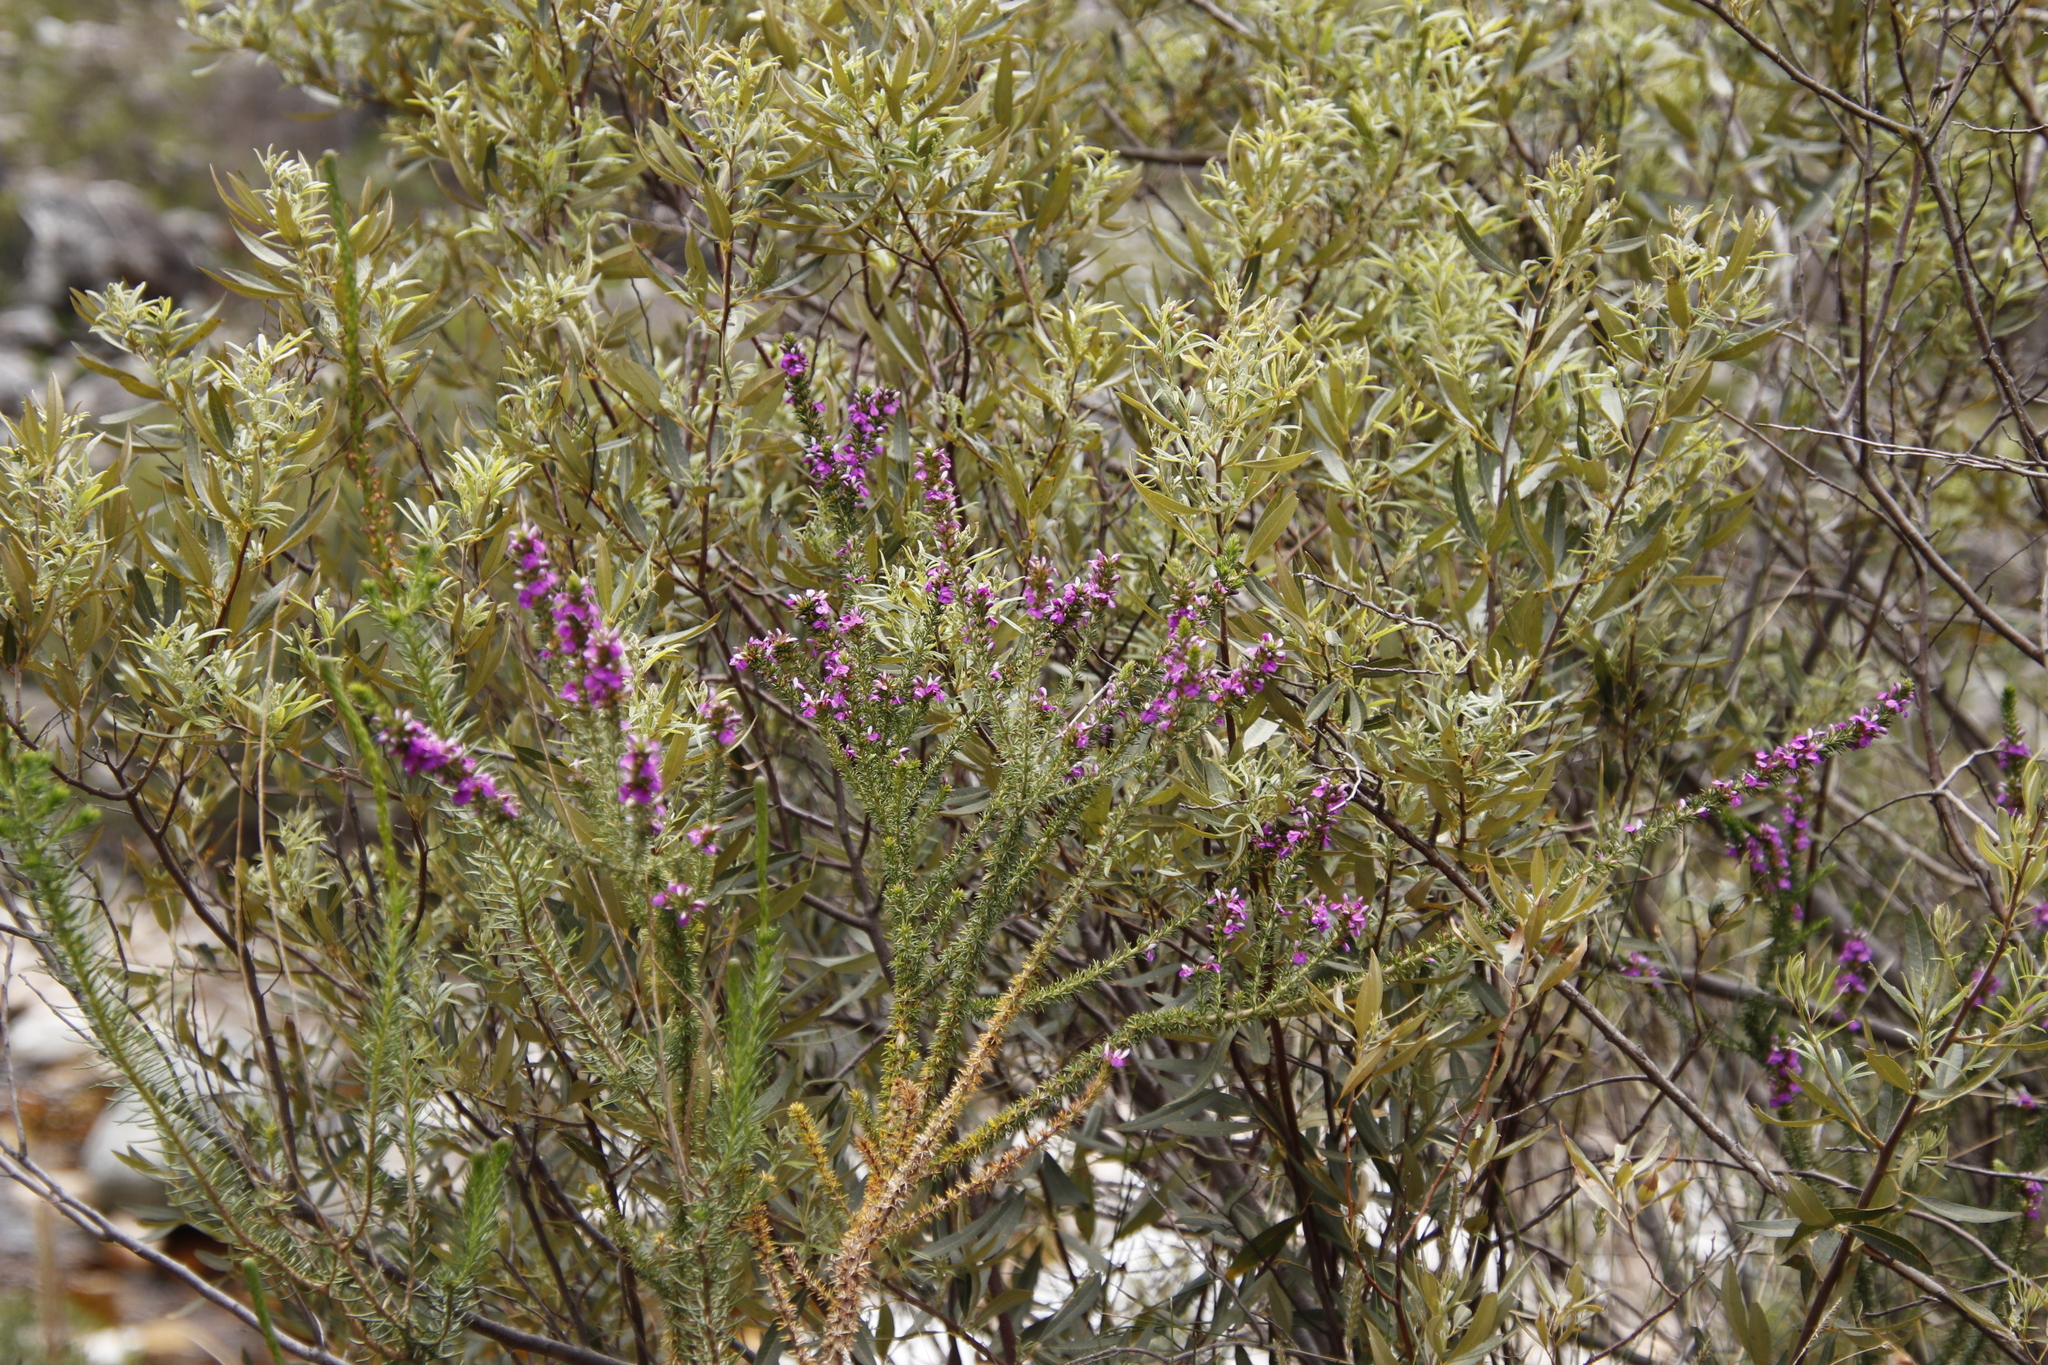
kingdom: Plantae
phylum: Tracheophyta
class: Magnoliopsida
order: Fabales
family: Polygalaceae
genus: Muraltia
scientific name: Muraltia heisteria
